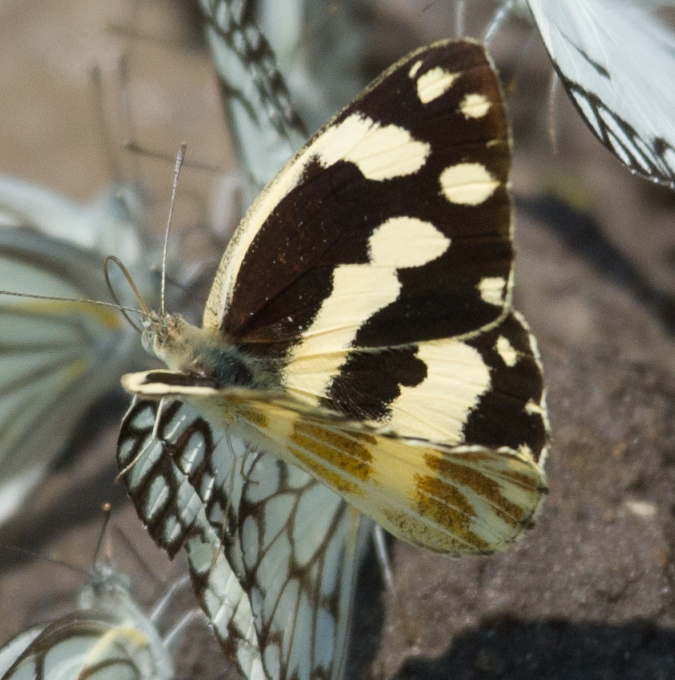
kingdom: Animalia
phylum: Arthropoda
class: Insecta
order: Lepidoptera
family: Pieridae
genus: Pinacopteryx
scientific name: Pinacopteryx eriphia
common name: Zebra white
